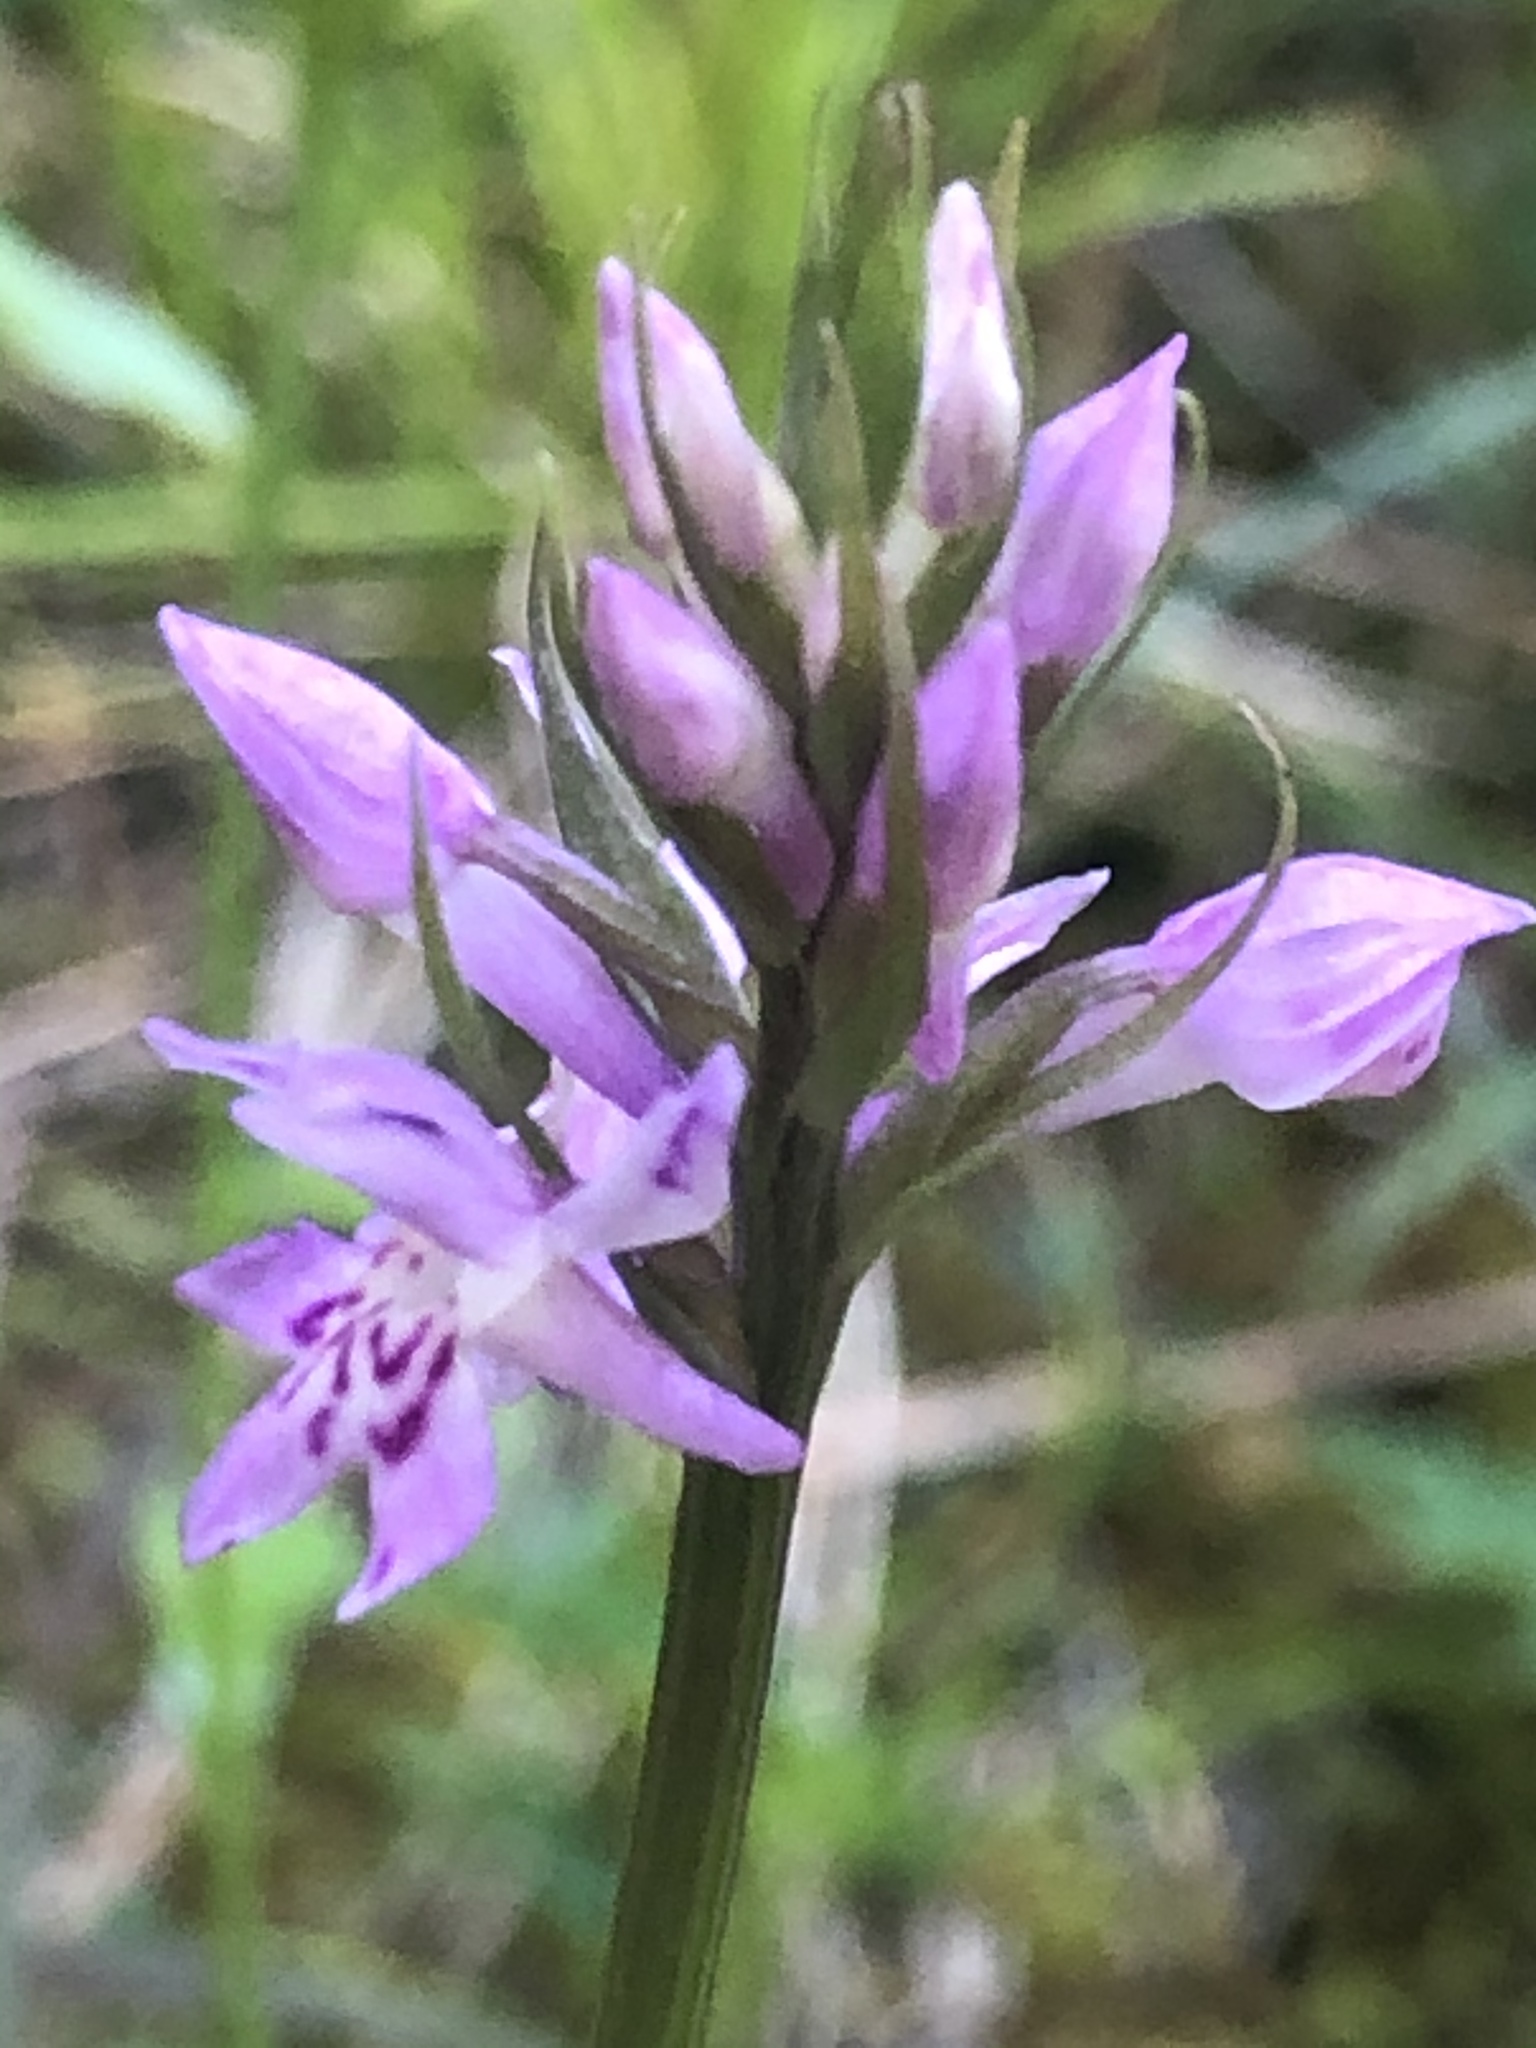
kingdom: Plantae
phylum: Tracheophyta
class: Liliopsida
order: Asparagales
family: Orchidaceae
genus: Dactylorhiza
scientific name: Dactylorhiza maculata
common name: Heath spotted-orchid
